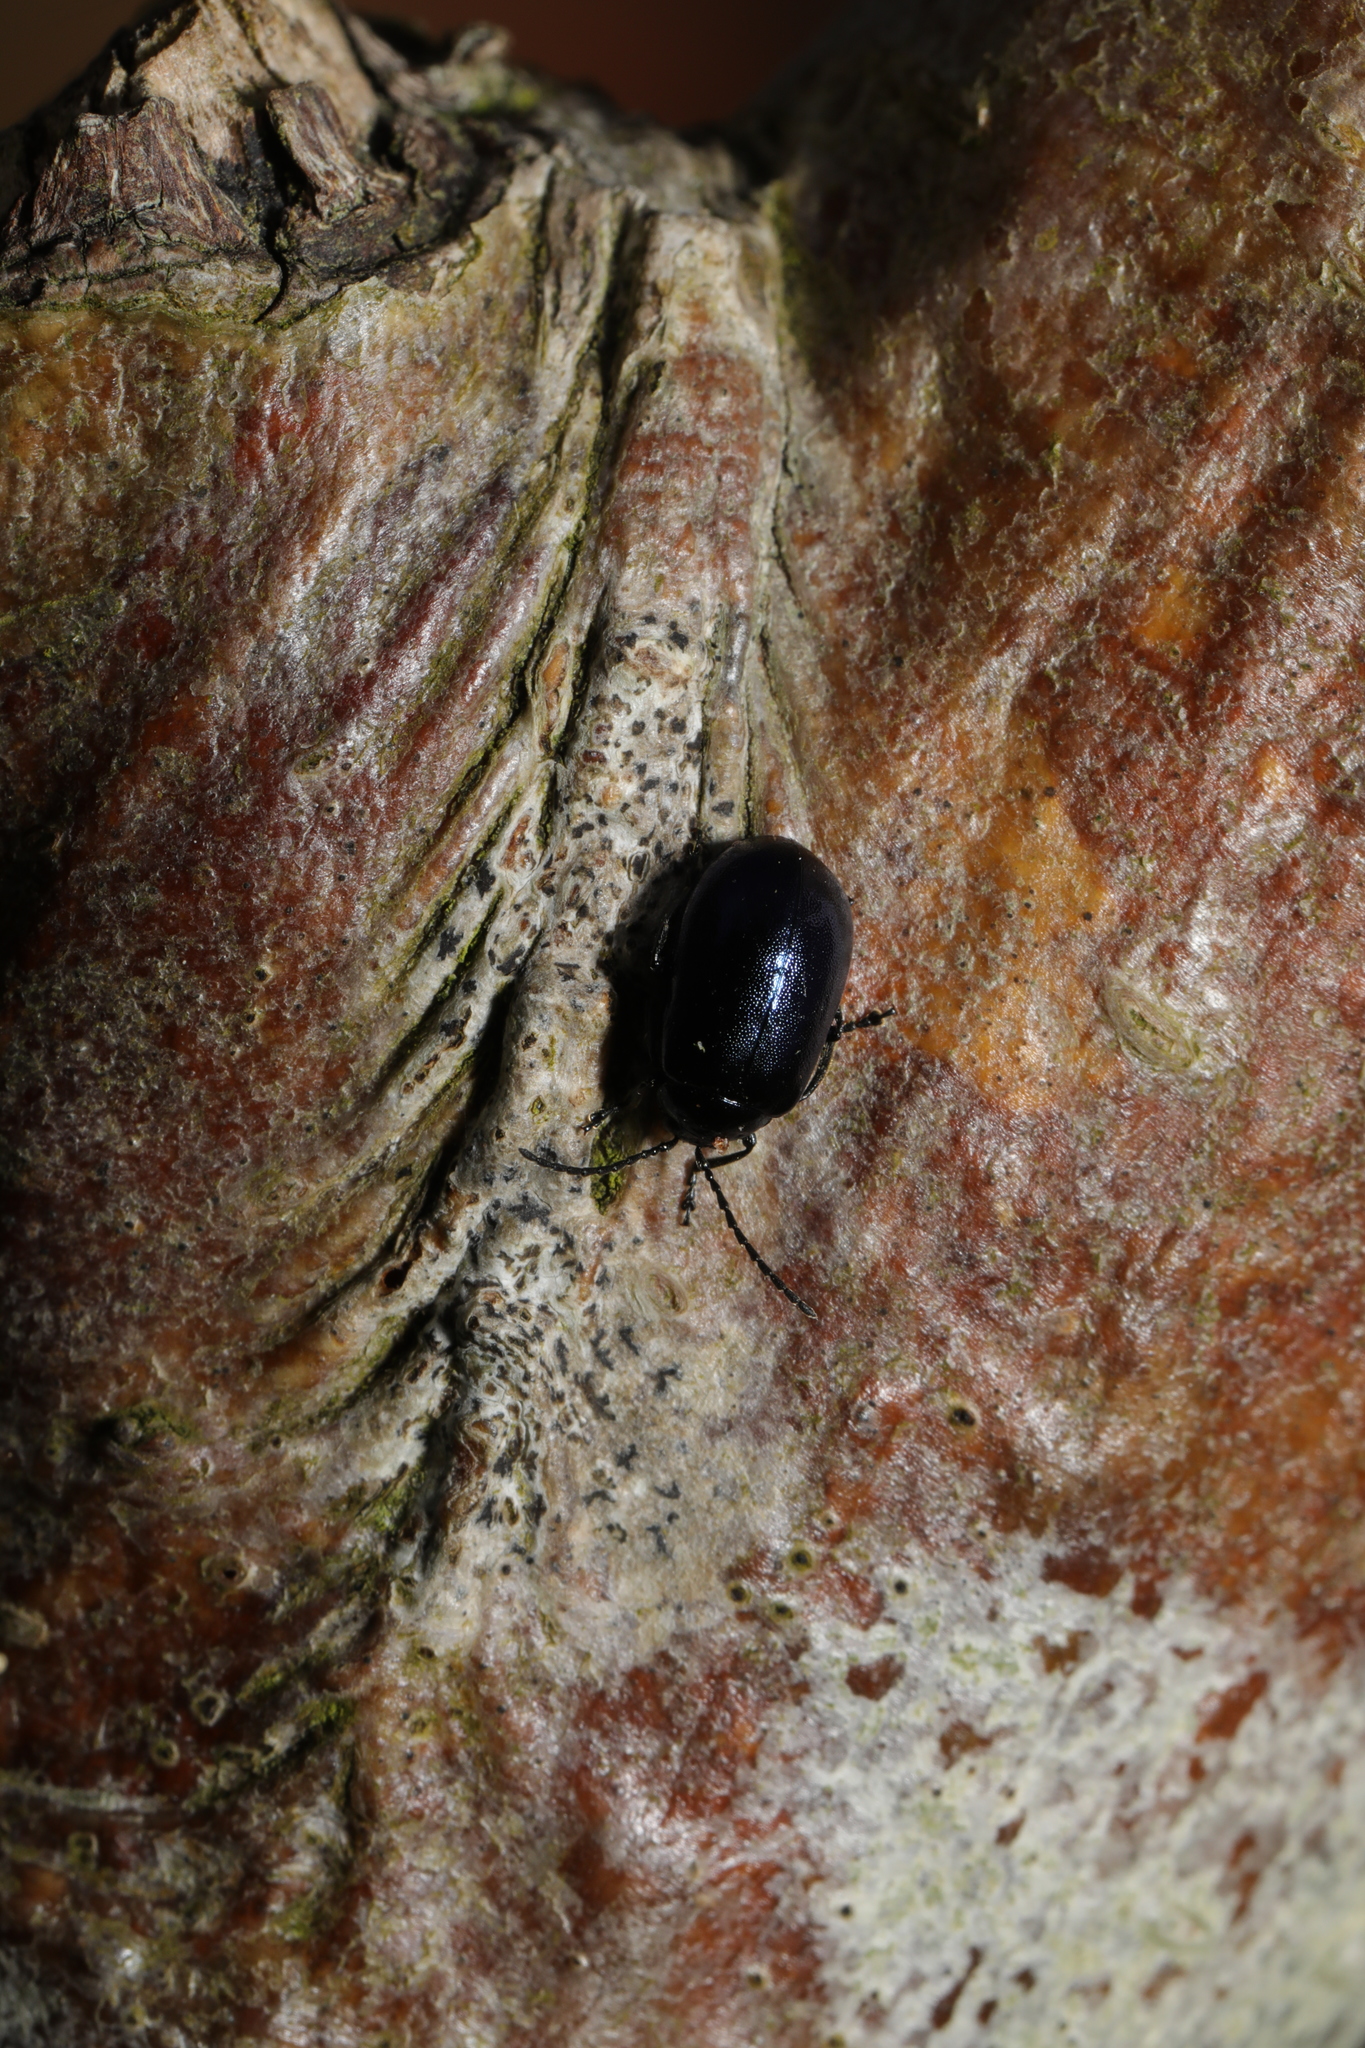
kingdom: Animalia
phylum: Arthropoda
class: Insecta
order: Coleoptera
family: Chrysomelidae
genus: Agelastica
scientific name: Agelastica alni
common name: Alder leaf beetle
